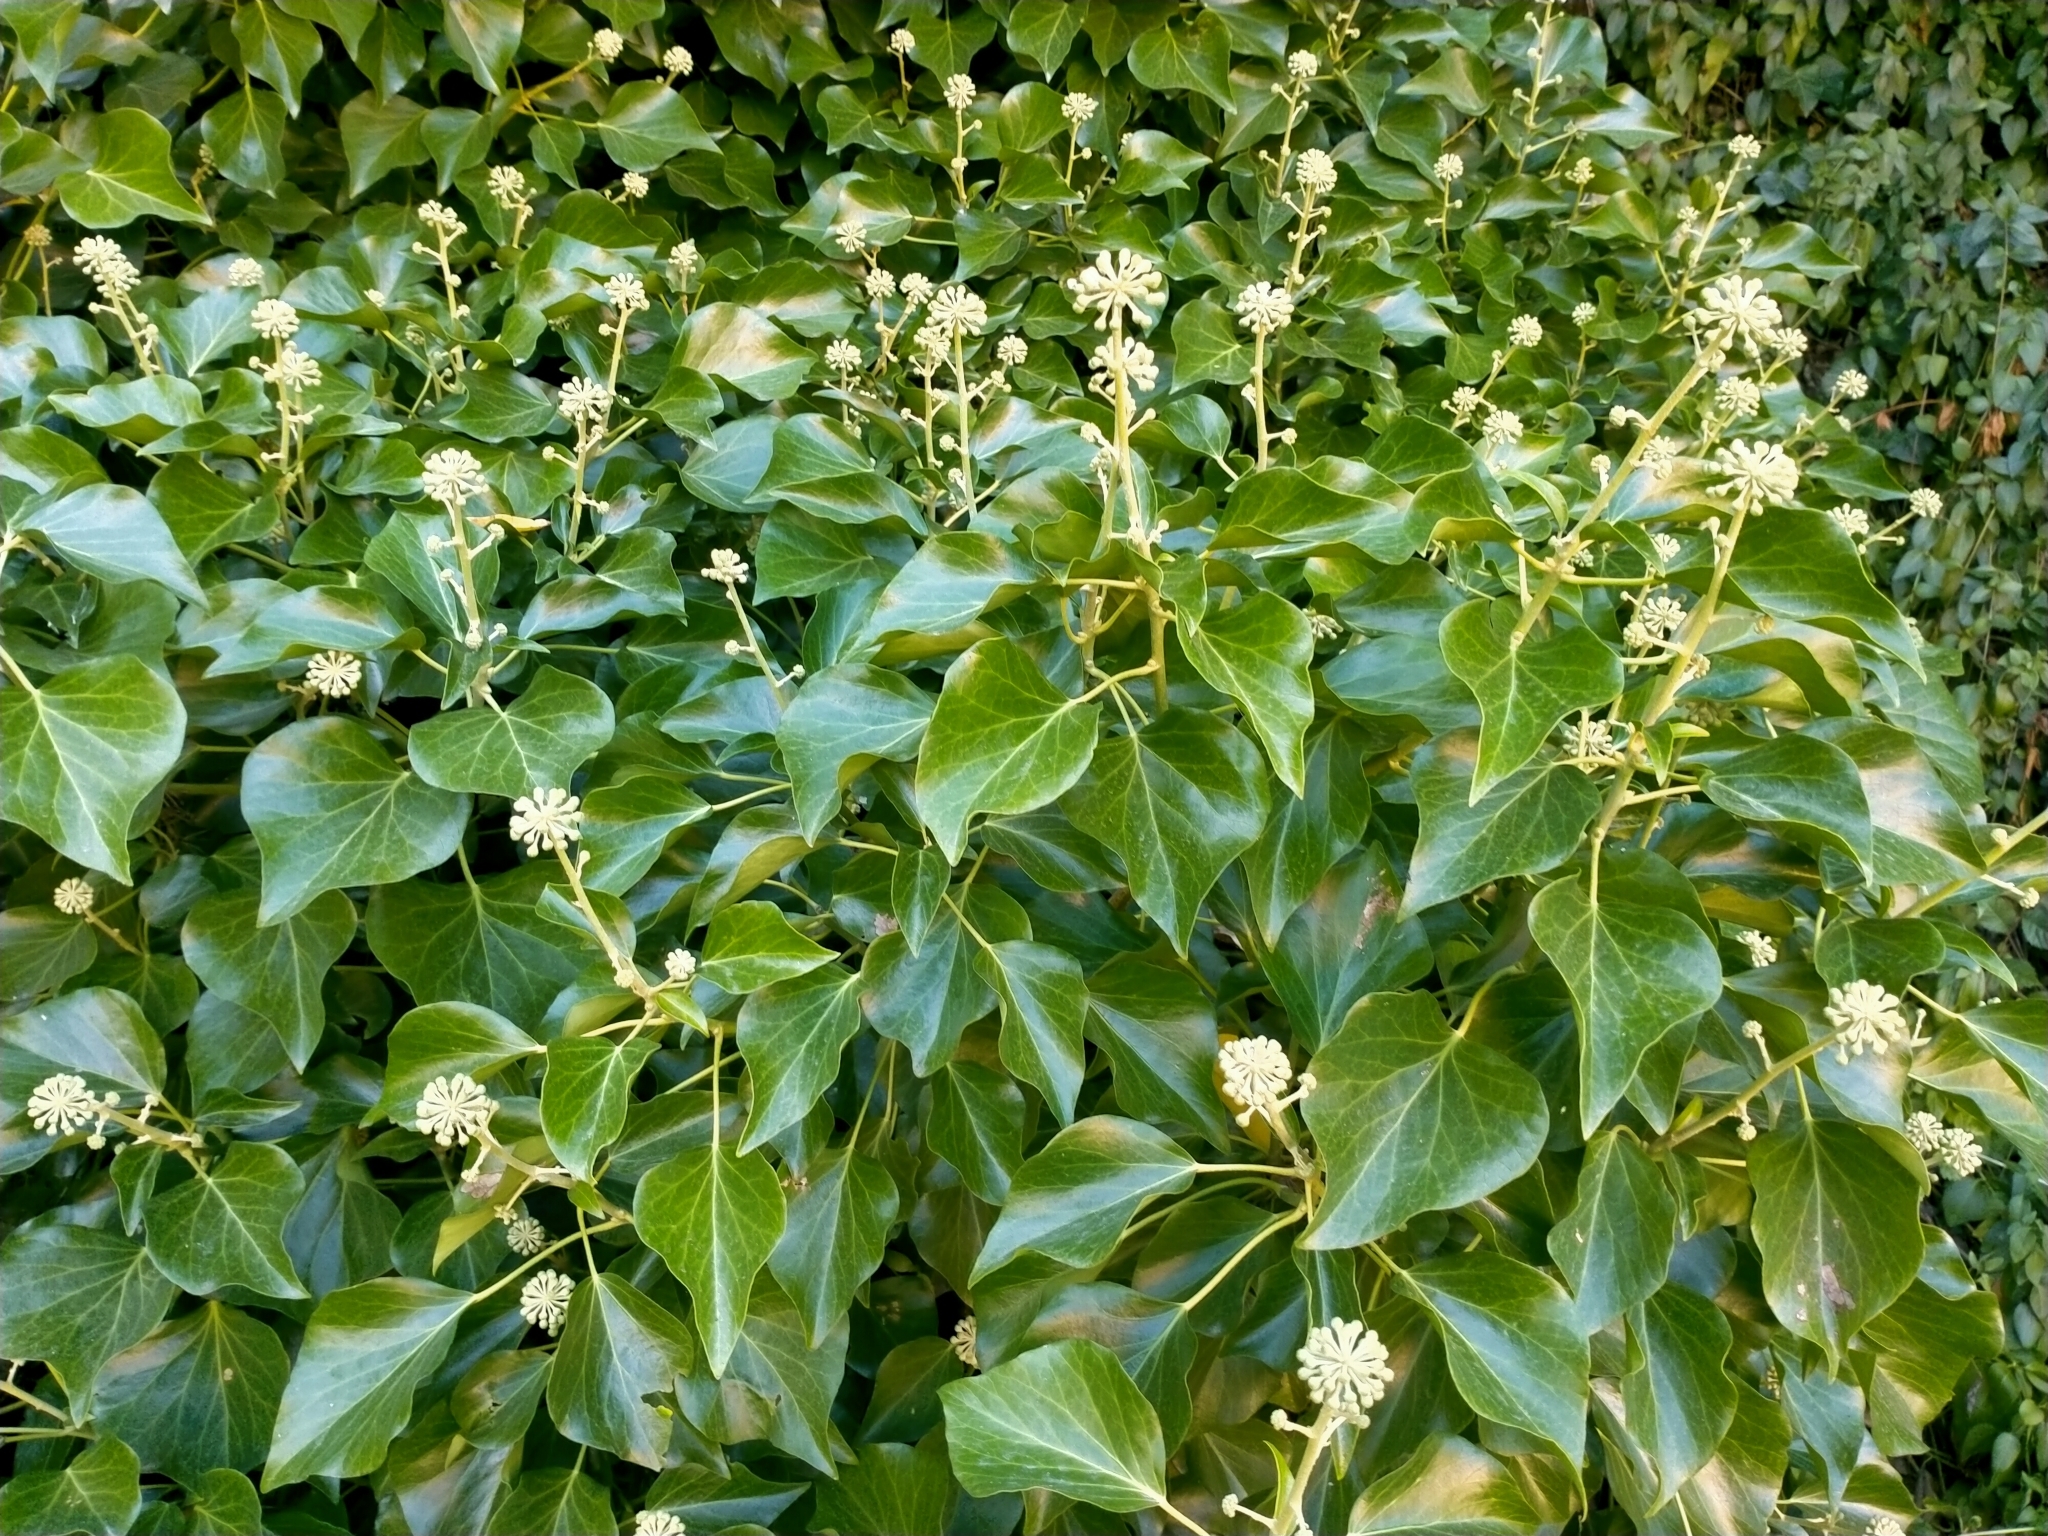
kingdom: Plantae
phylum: Tracheophyta
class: Magnoliopsida
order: Apiales
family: Araliaceae
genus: Hedera
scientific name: Hedera helix
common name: Ivy
